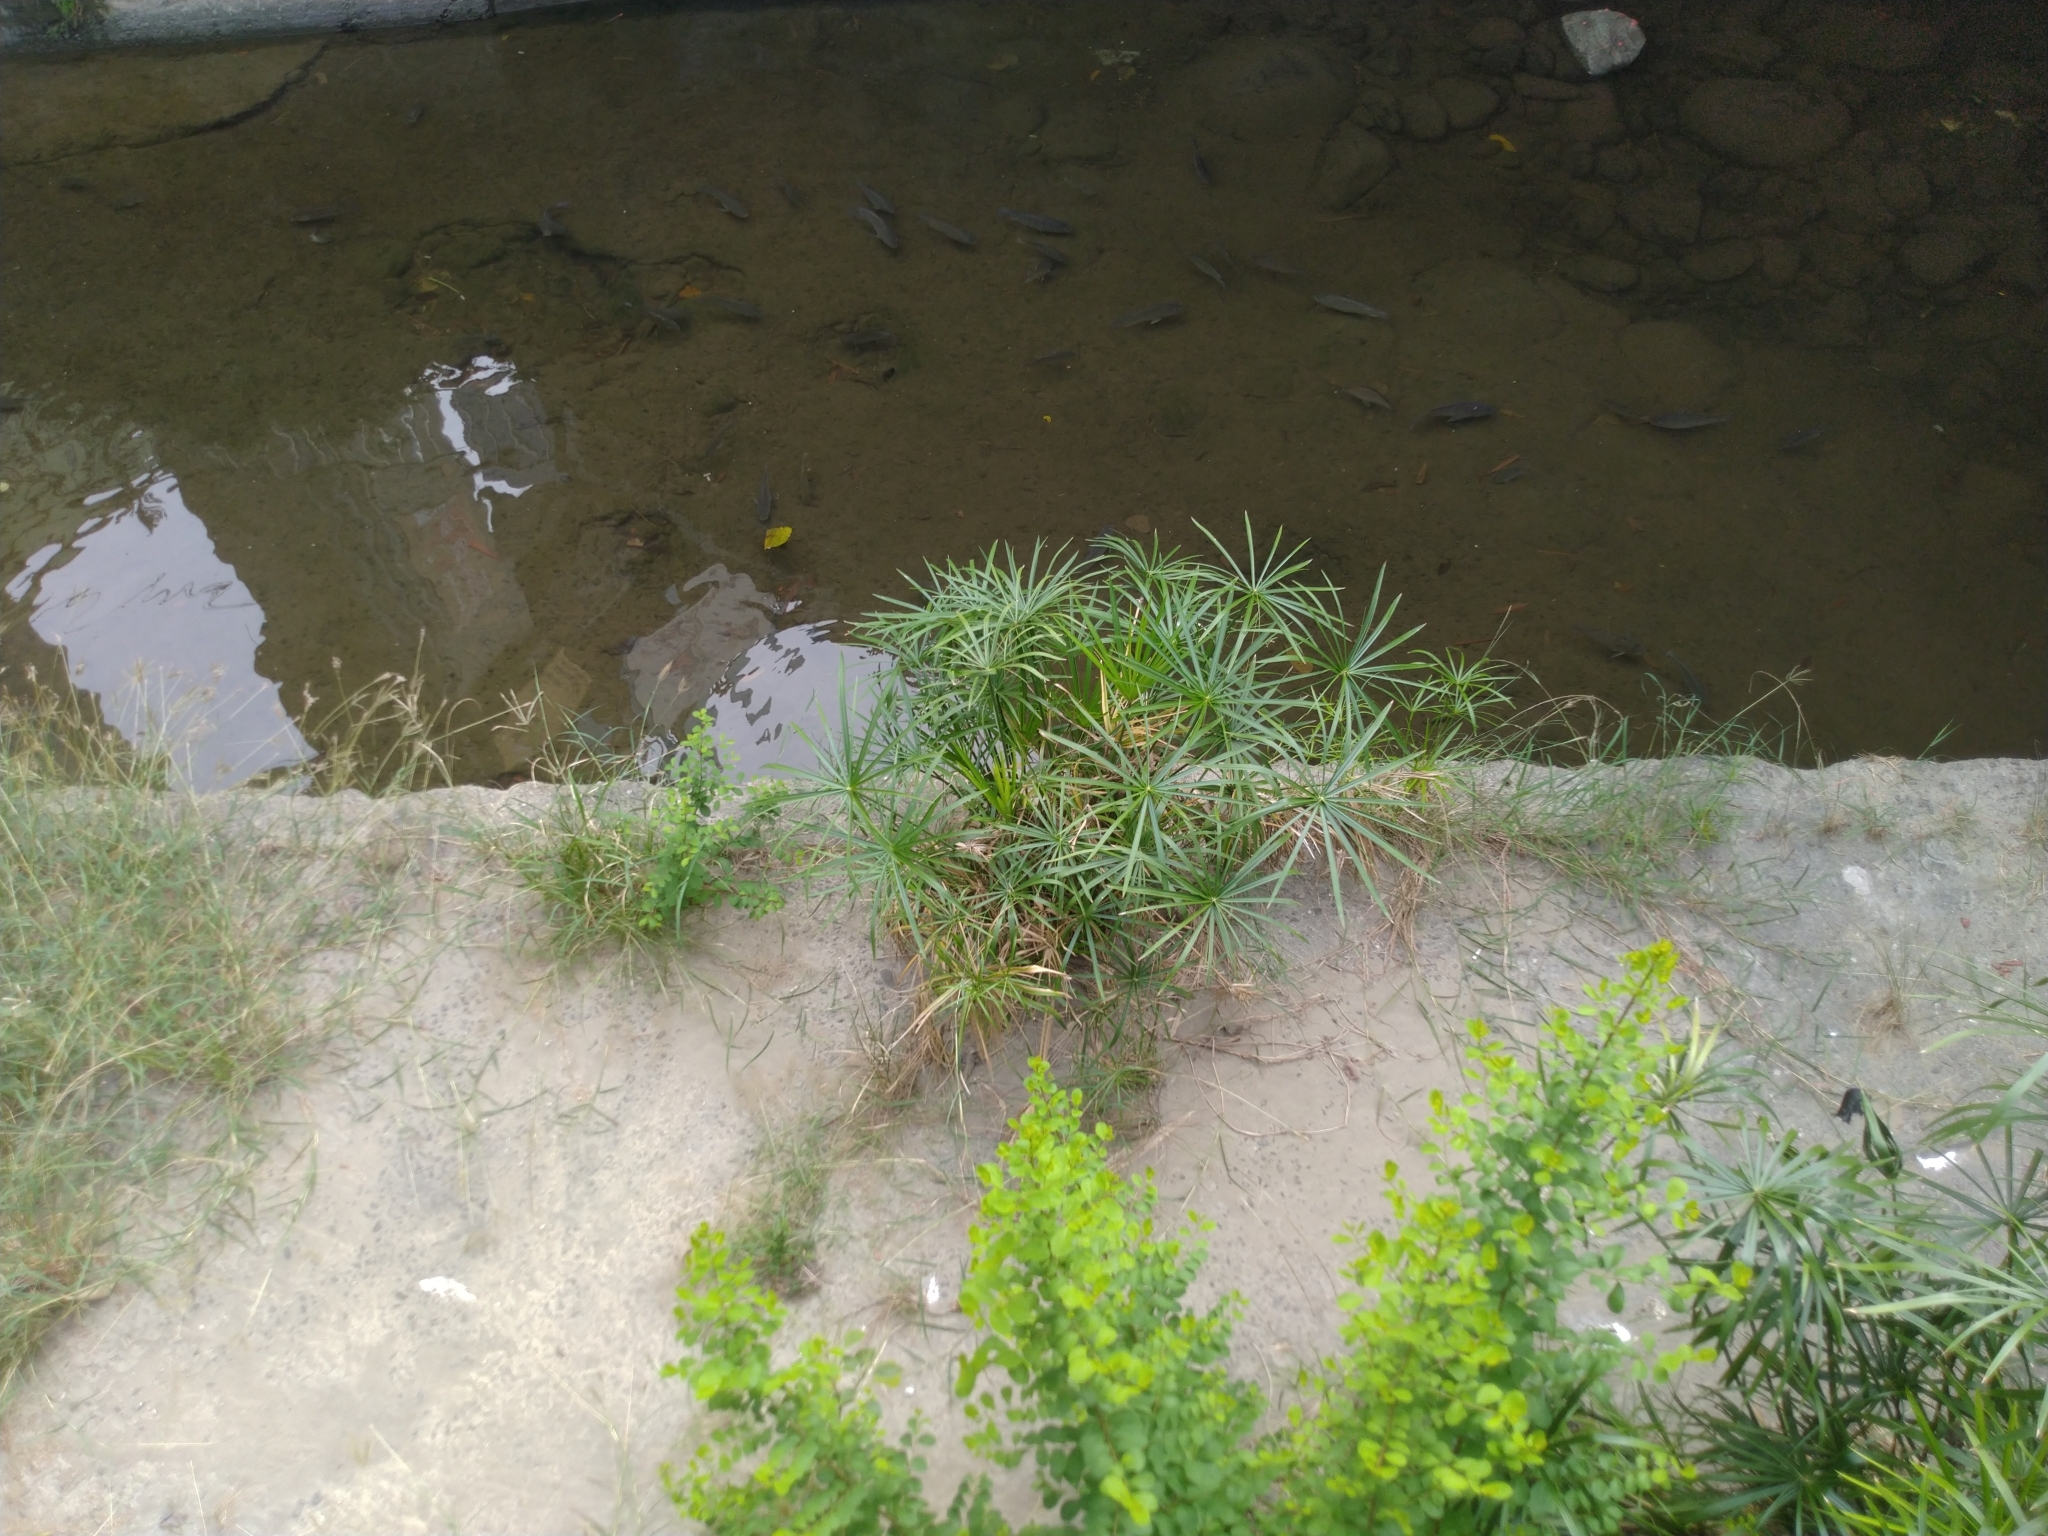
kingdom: Plantae
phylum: Tracheophyta
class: Liliopsida
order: Poales
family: Cyperaceae
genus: Cyperus
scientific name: Cyperus alternifolius
